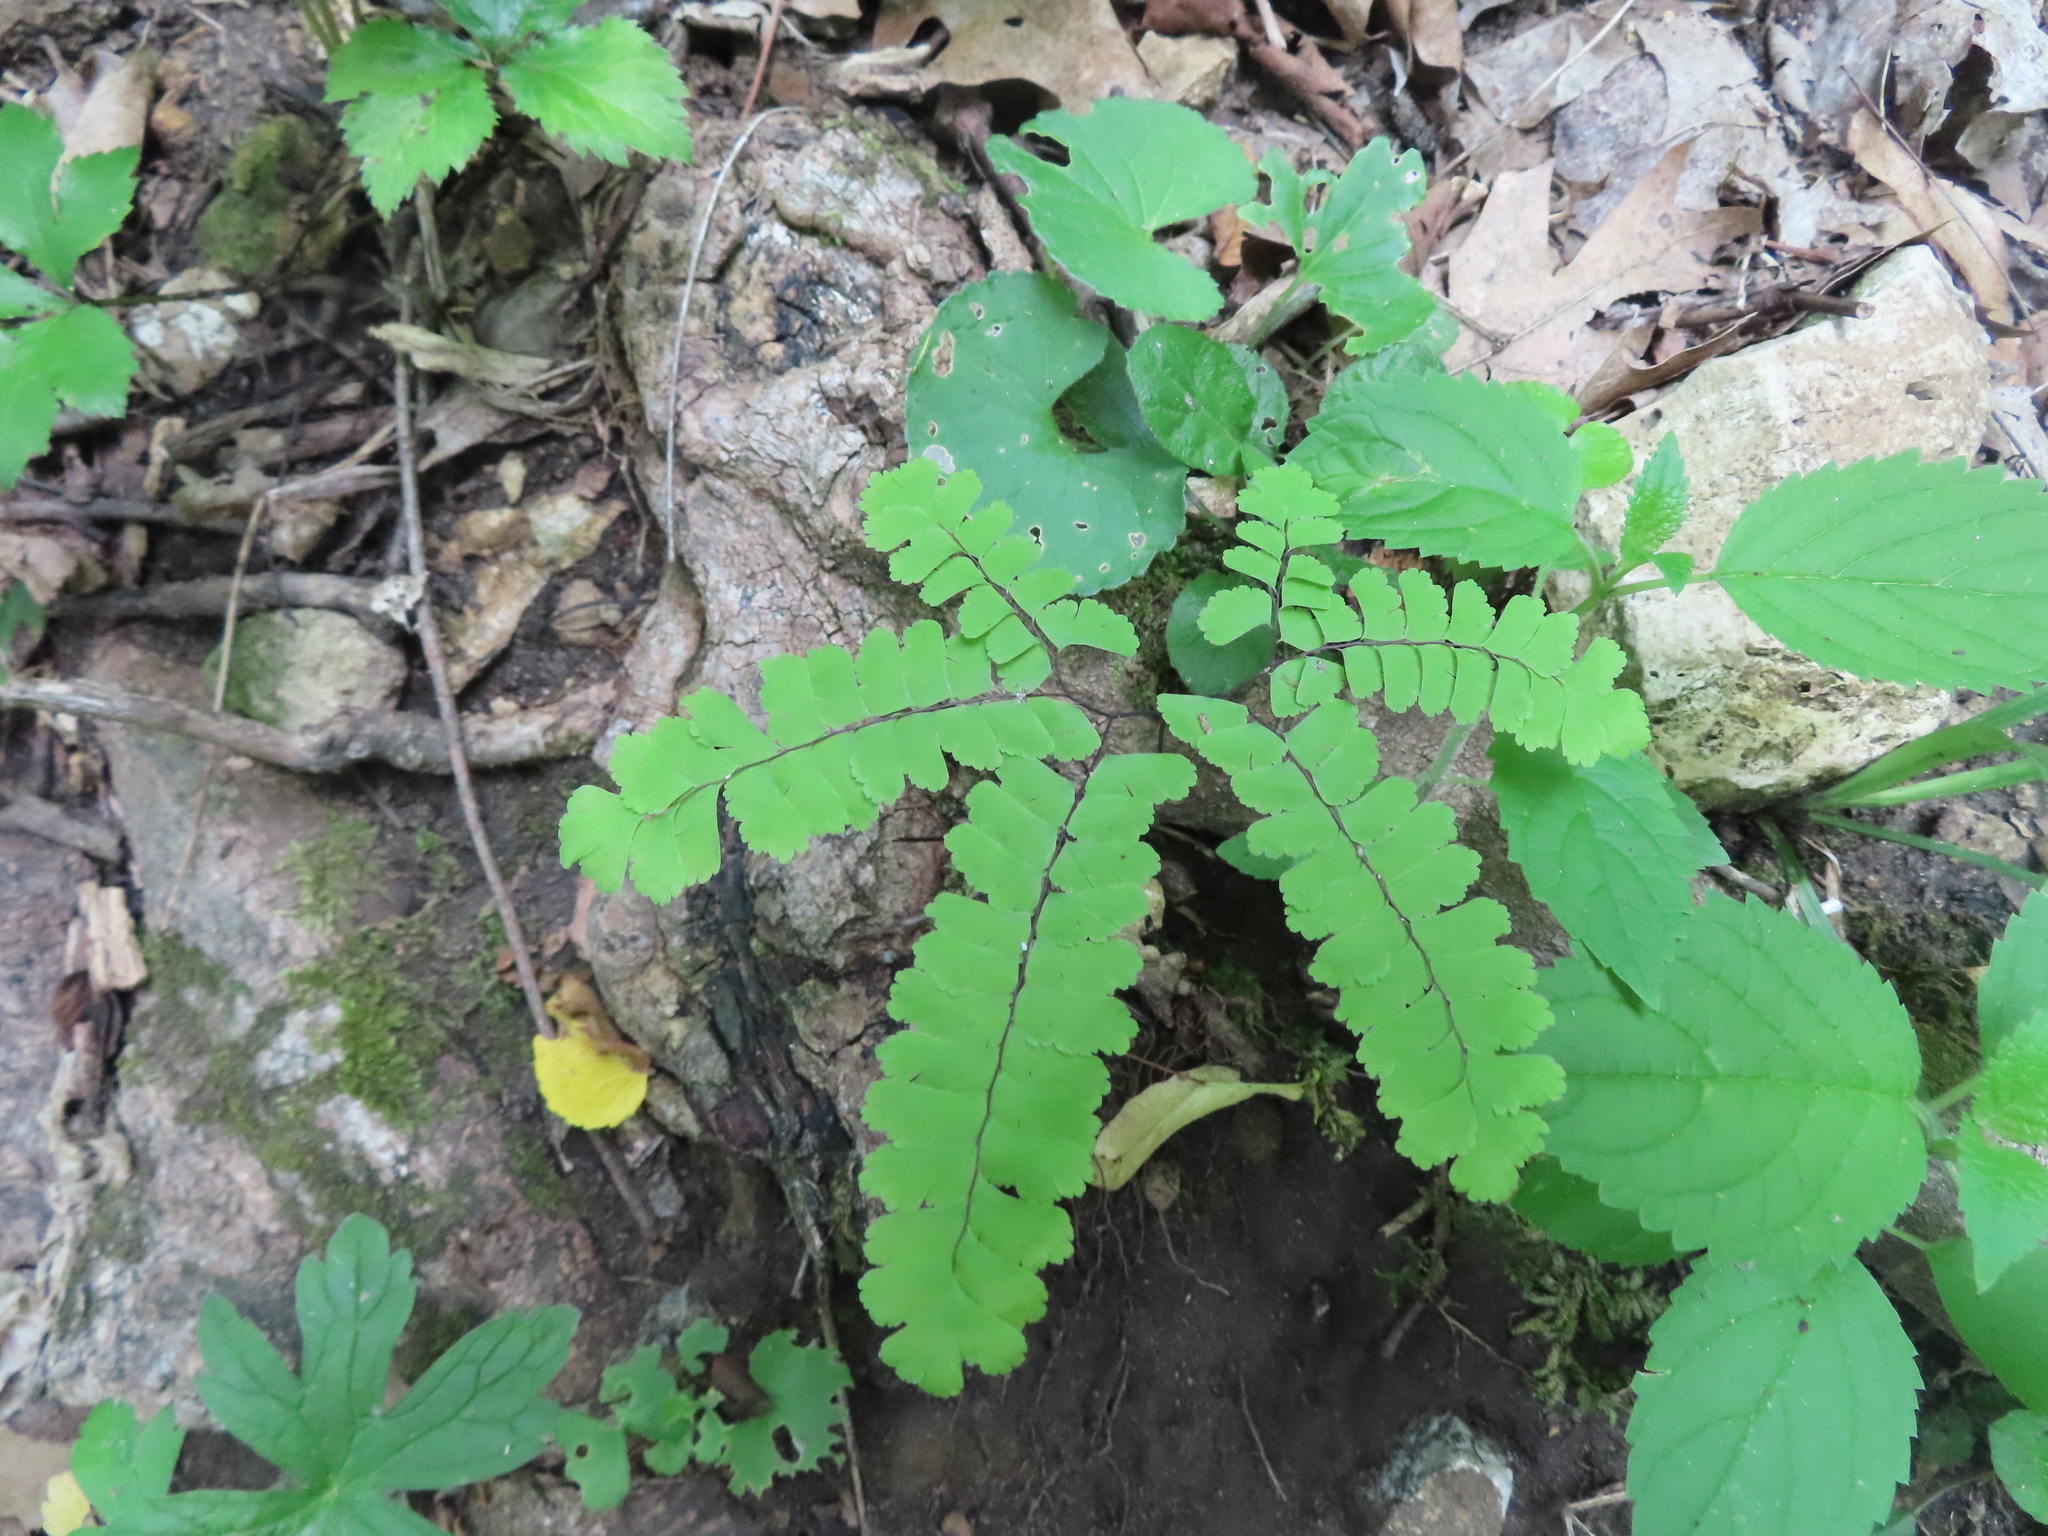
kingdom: Plantae
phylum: Tracheophyta
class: Polypodiopsida
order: Polypodiales
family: Pteridaceae
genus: Adiantum
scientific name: Adiantum pedatum
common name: Five-finger fern
